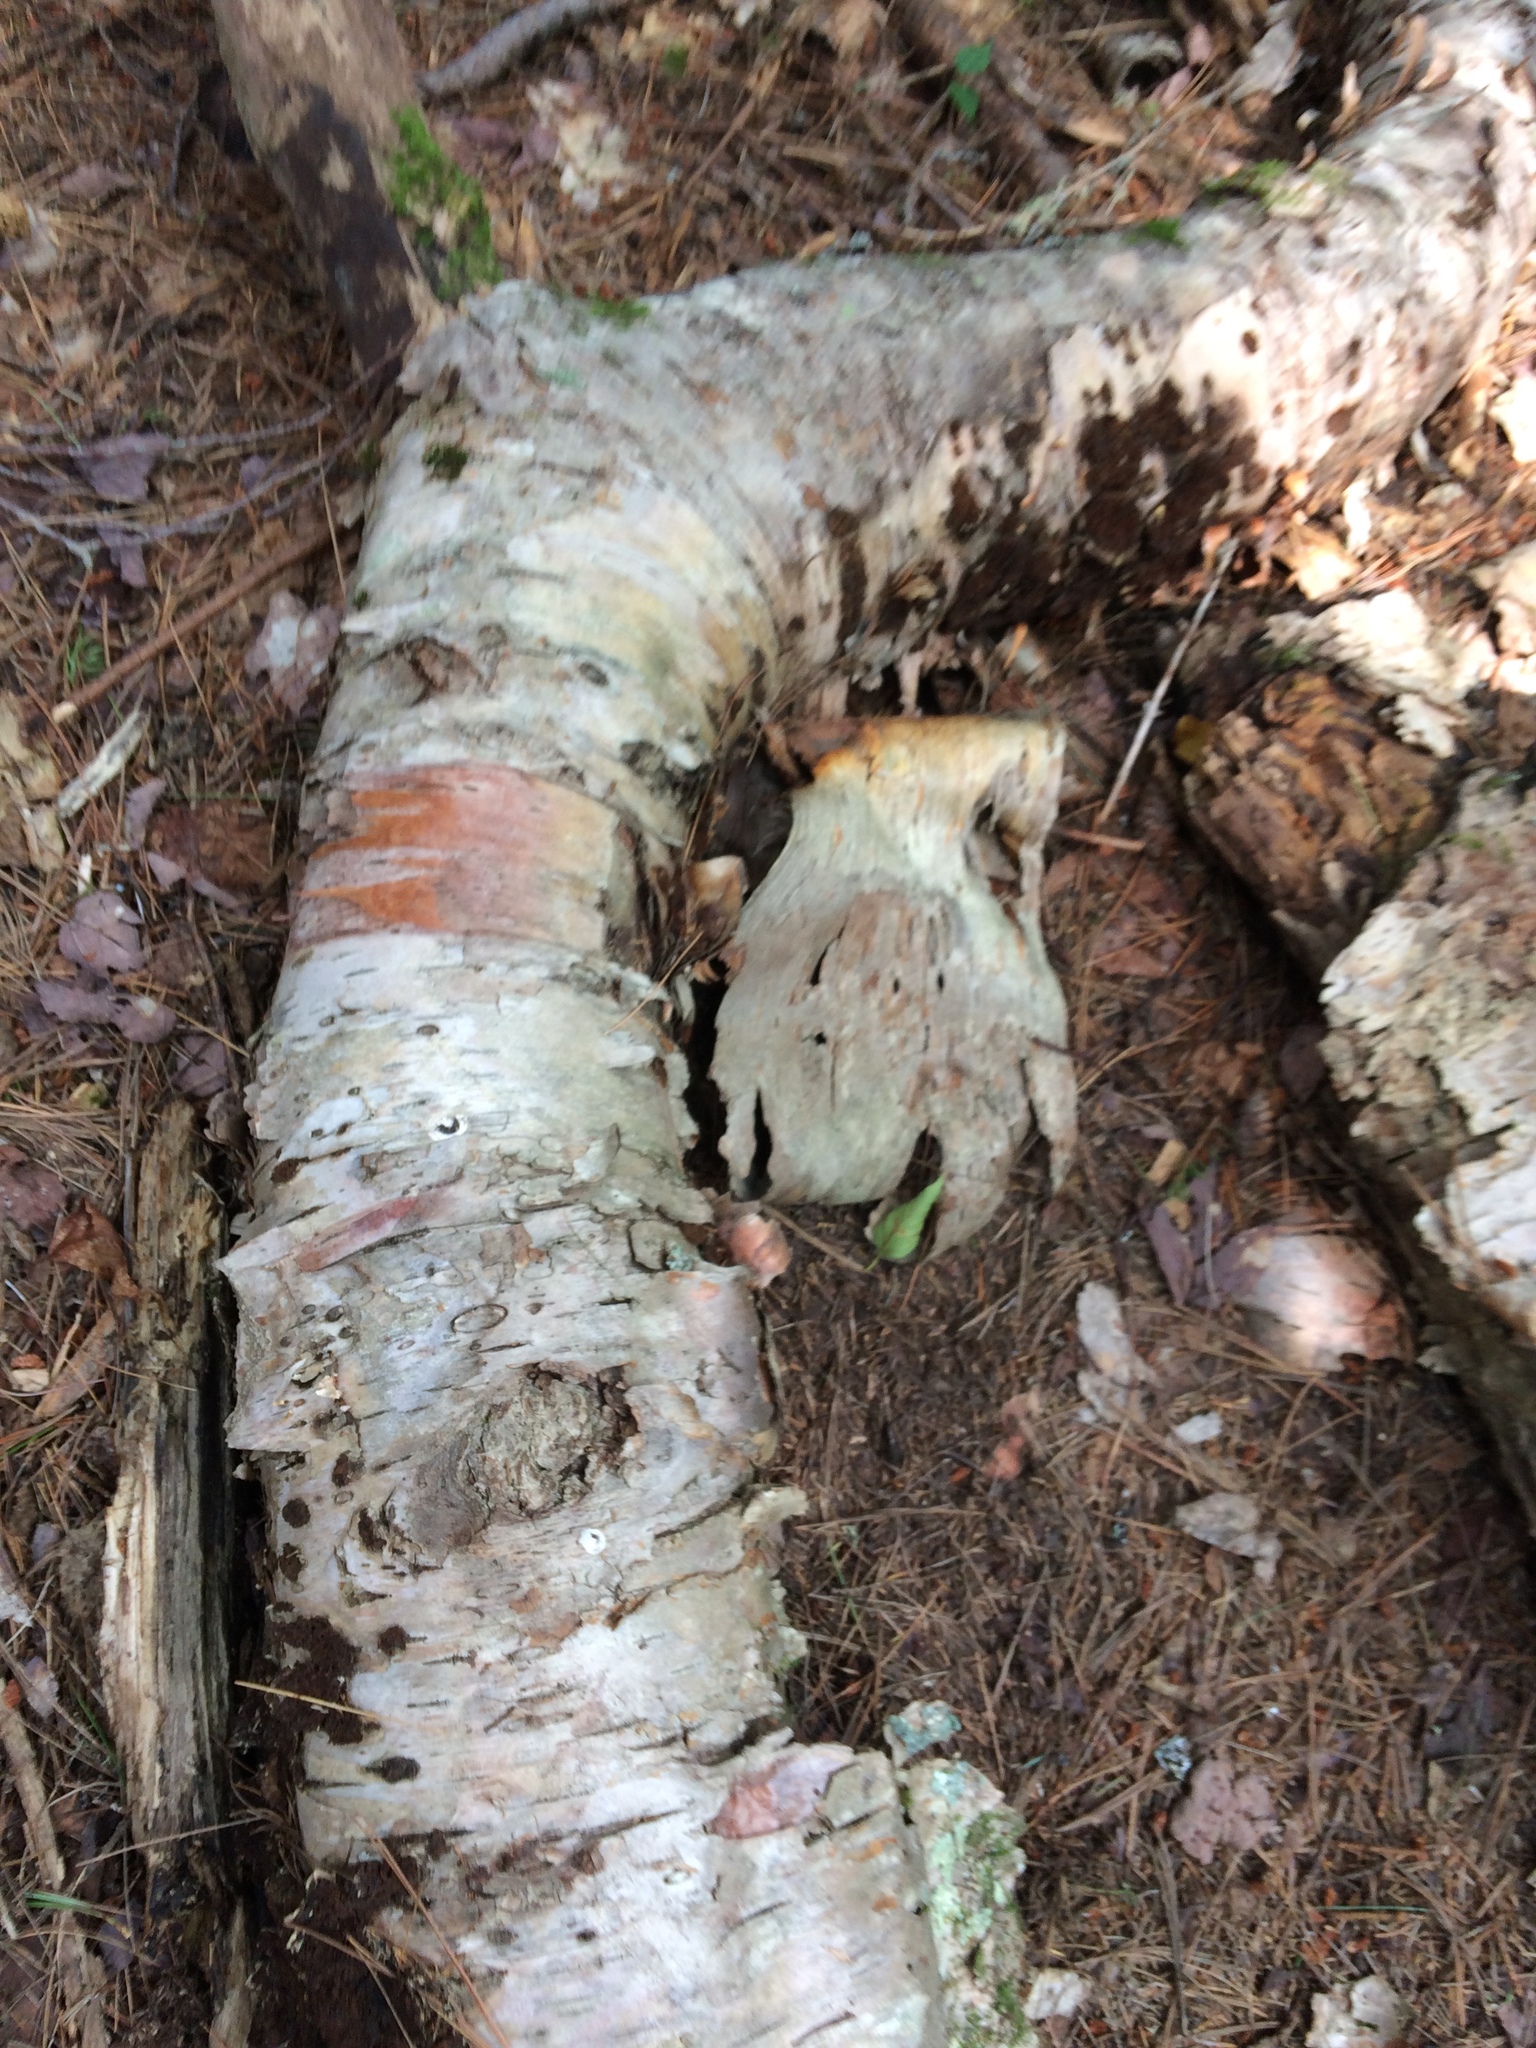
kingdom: Plantae
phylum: Tracheophyta
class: Magnoliopsida
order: Fagales
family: Betulaceae
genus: Betula
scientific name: Betula cordifolia
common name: Mountain white birch
